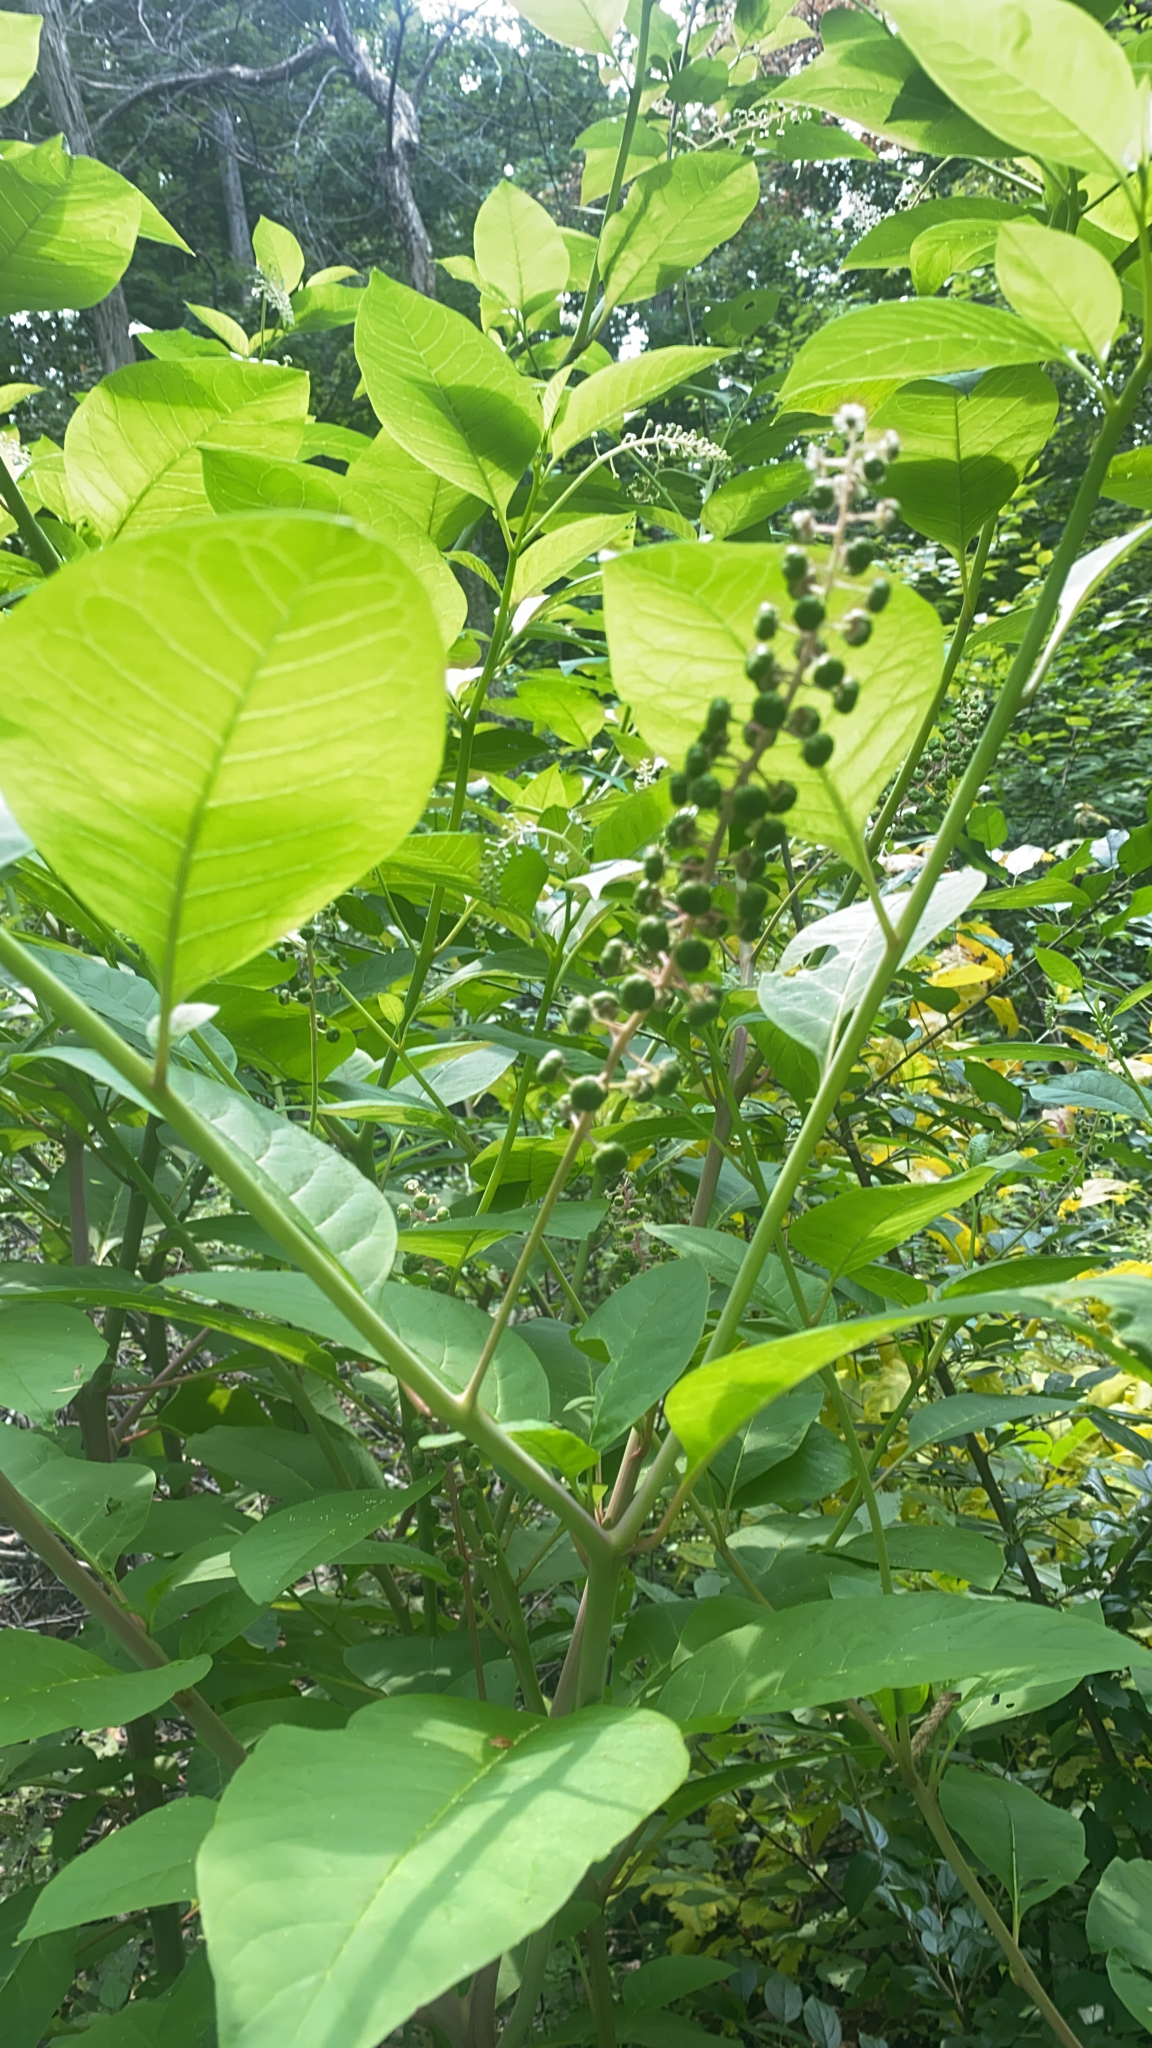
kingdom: Plantae
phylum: Tracheophyta
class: Magnoliopsida
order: Caryophyllales
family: Phytolaccaceae
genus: Phytolacca
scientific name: Phytolacca americana
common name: American pokeweed
